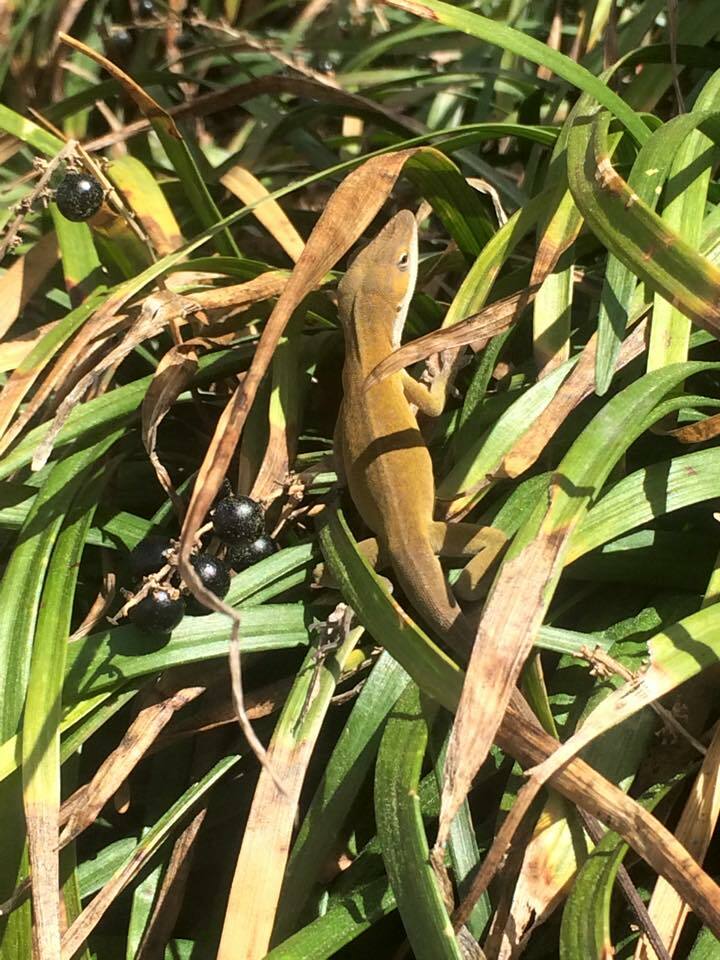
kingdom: Animalia
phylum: Chordata
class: Squamata
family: Dactyloidae
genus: Anolis
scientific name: Anolis carolinensis
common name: Green anole
